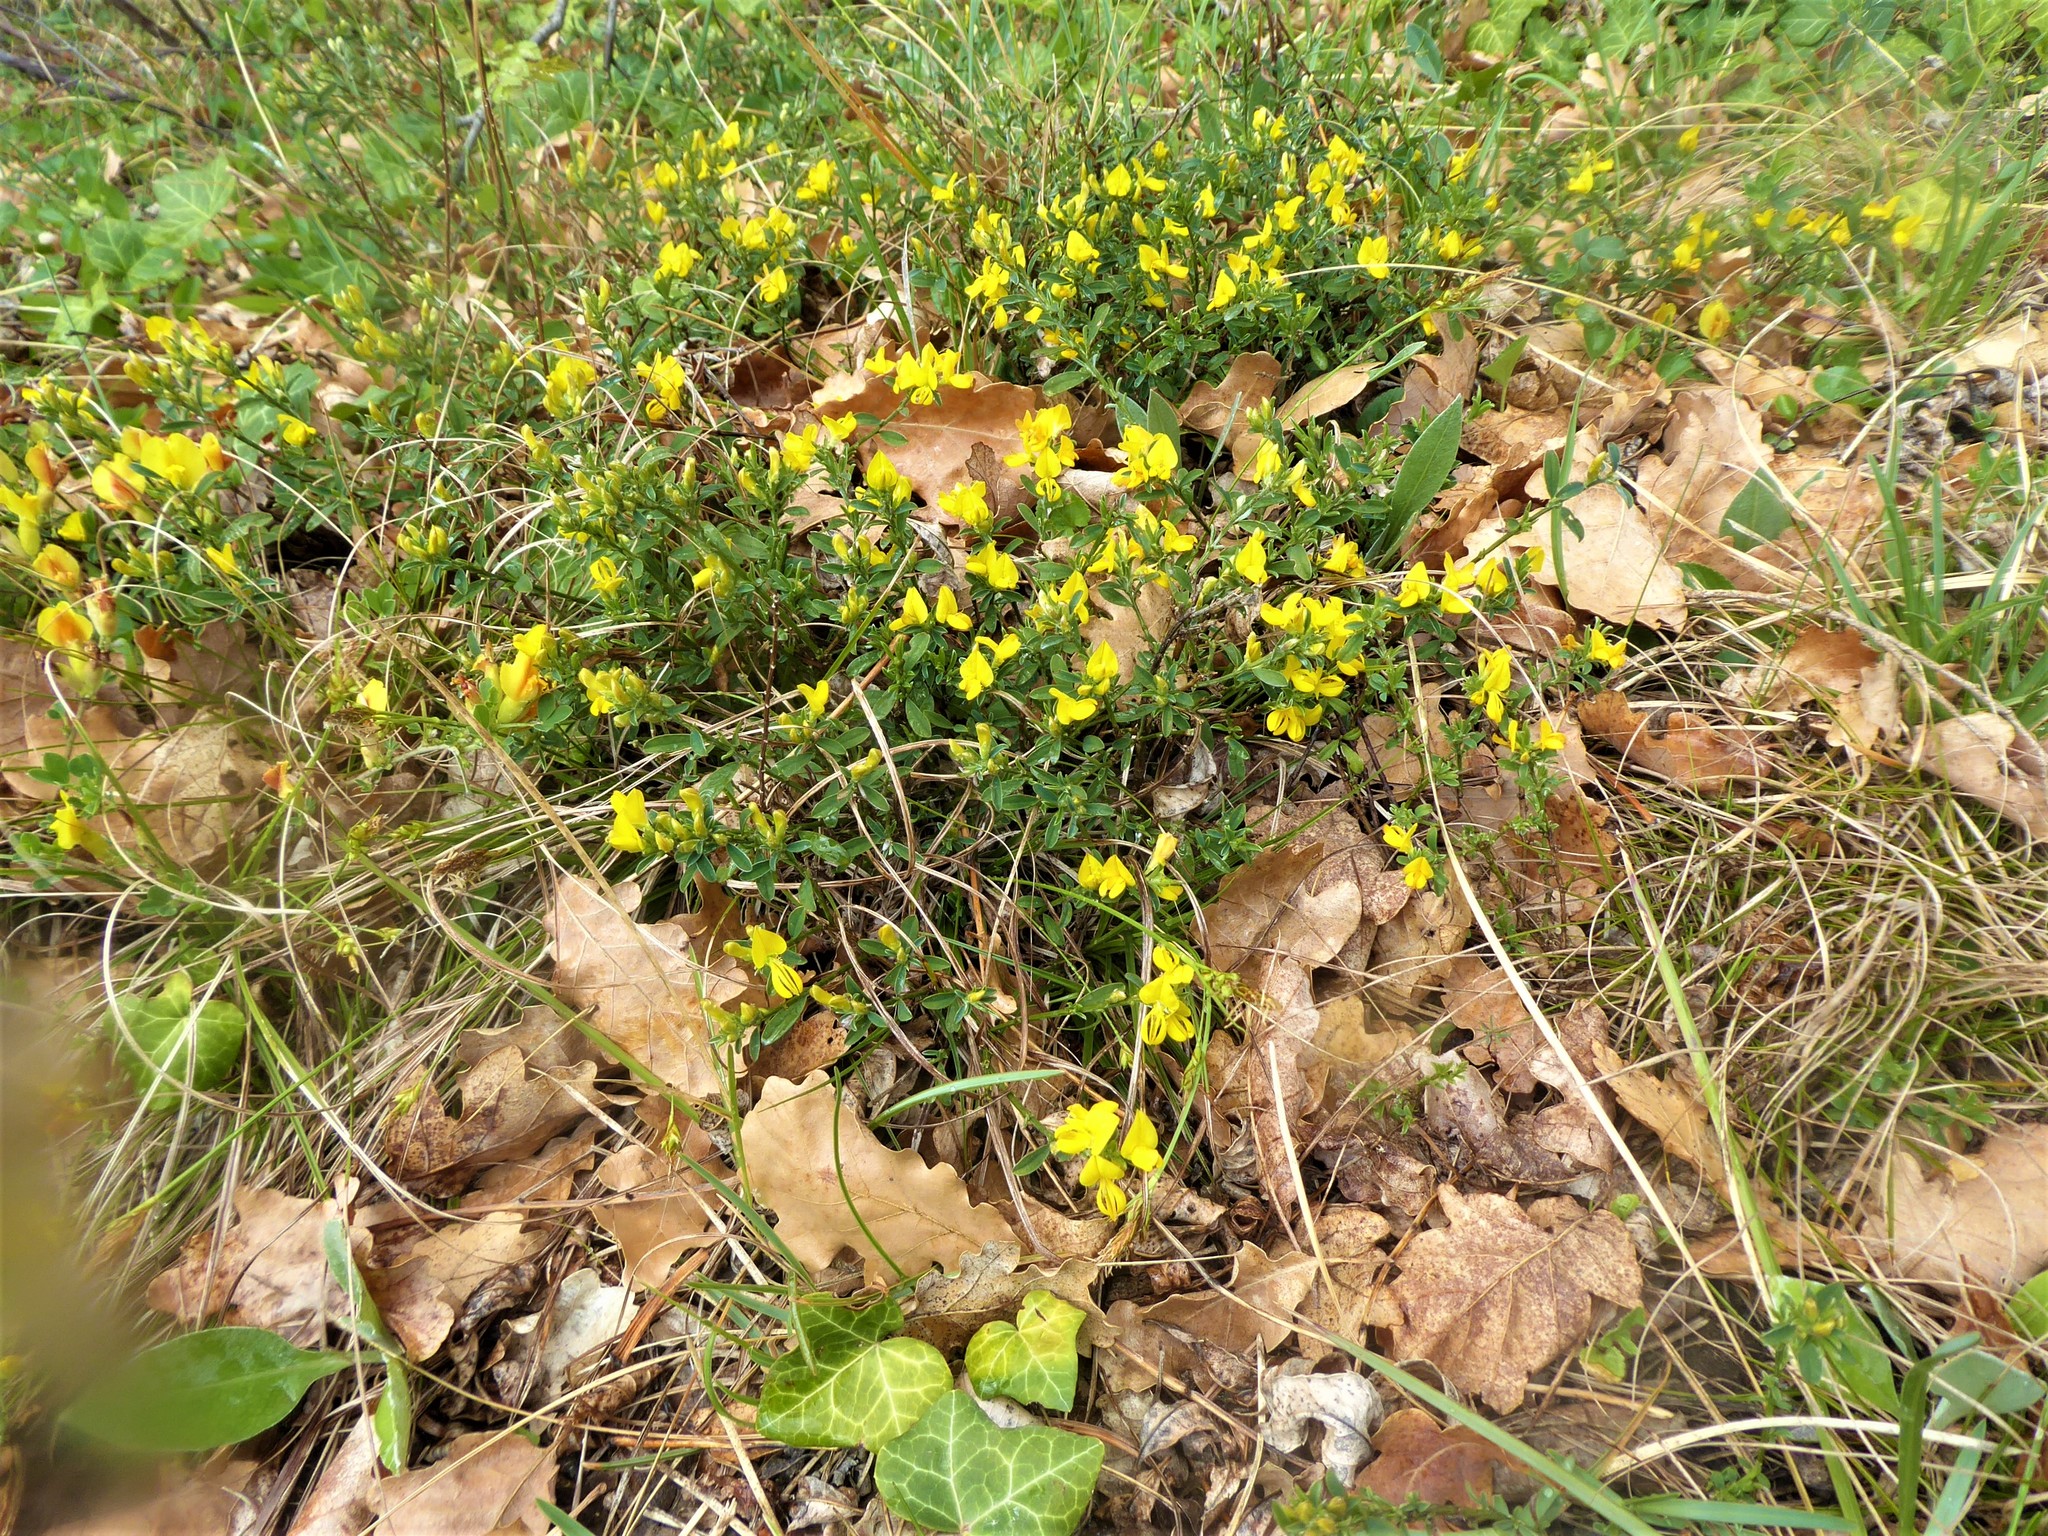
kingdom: Plantae
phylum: Tracheophyta
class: Magnoliopsida
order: Fabales
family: Fabaceae
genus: Genista
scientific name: Genista pilosa
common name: Hairy greenweed
